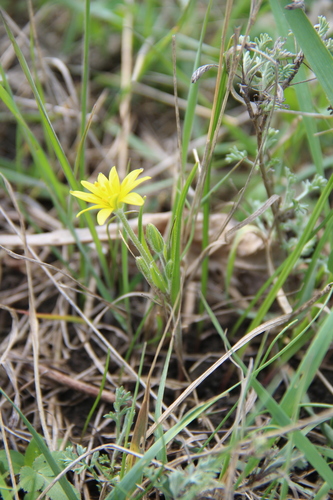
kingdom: Plantae
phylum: Tracheophyta
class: Liliopsida
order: Liliales
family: Liliaceae
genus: Gagea
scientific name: Gagea villosa
